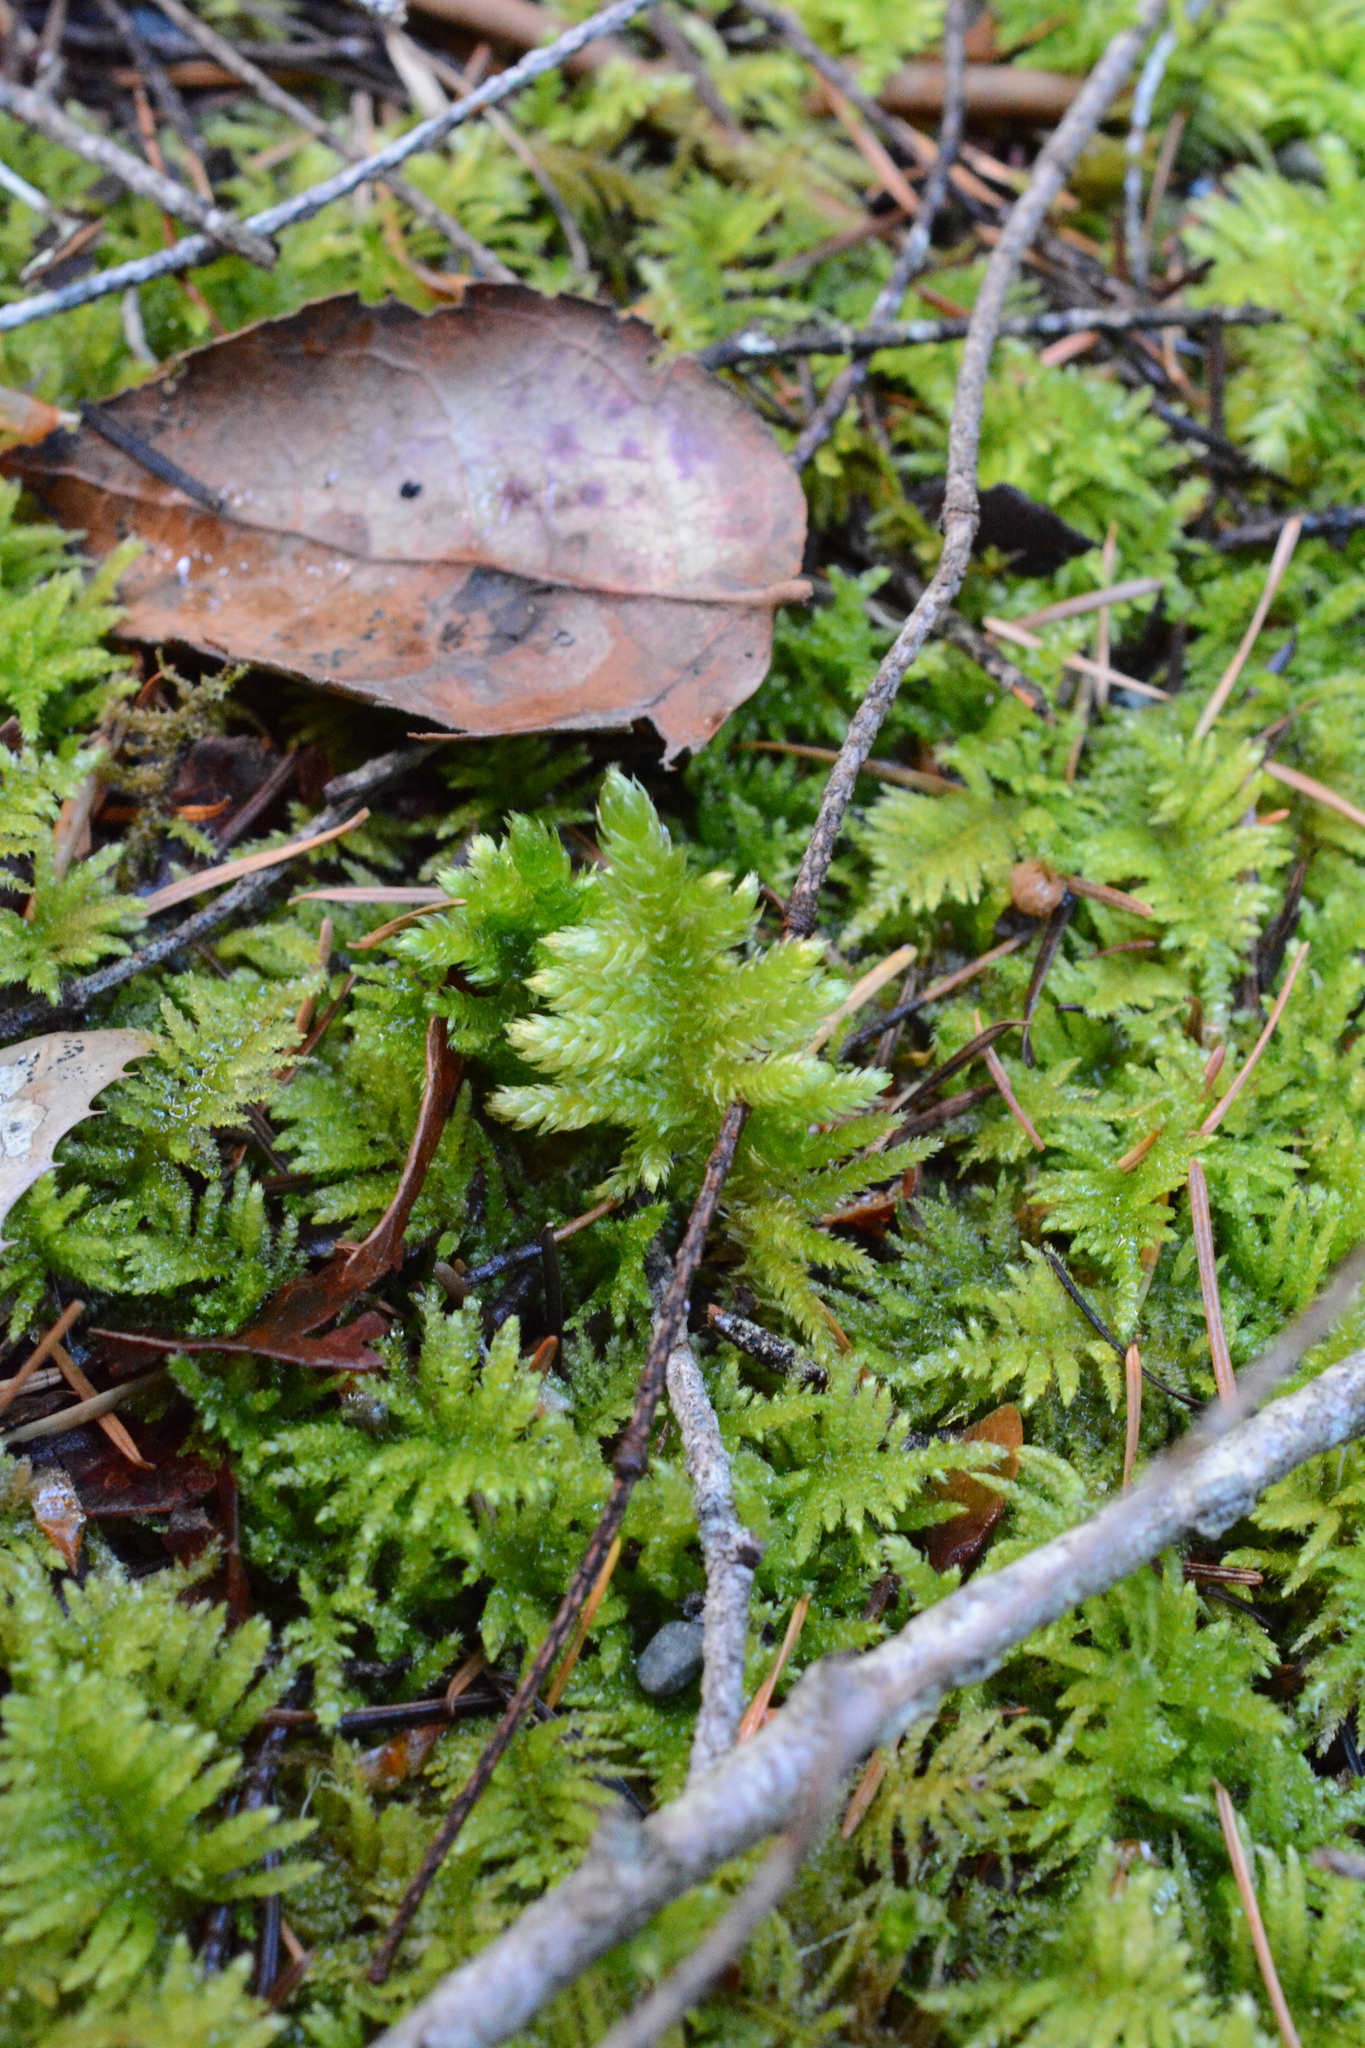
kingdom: Plantae
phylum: Bryophyta
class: Bryopsida
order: Hypnales
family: Brachytheciaceae
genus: Kindbergia
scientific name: Kindbergia oregana
